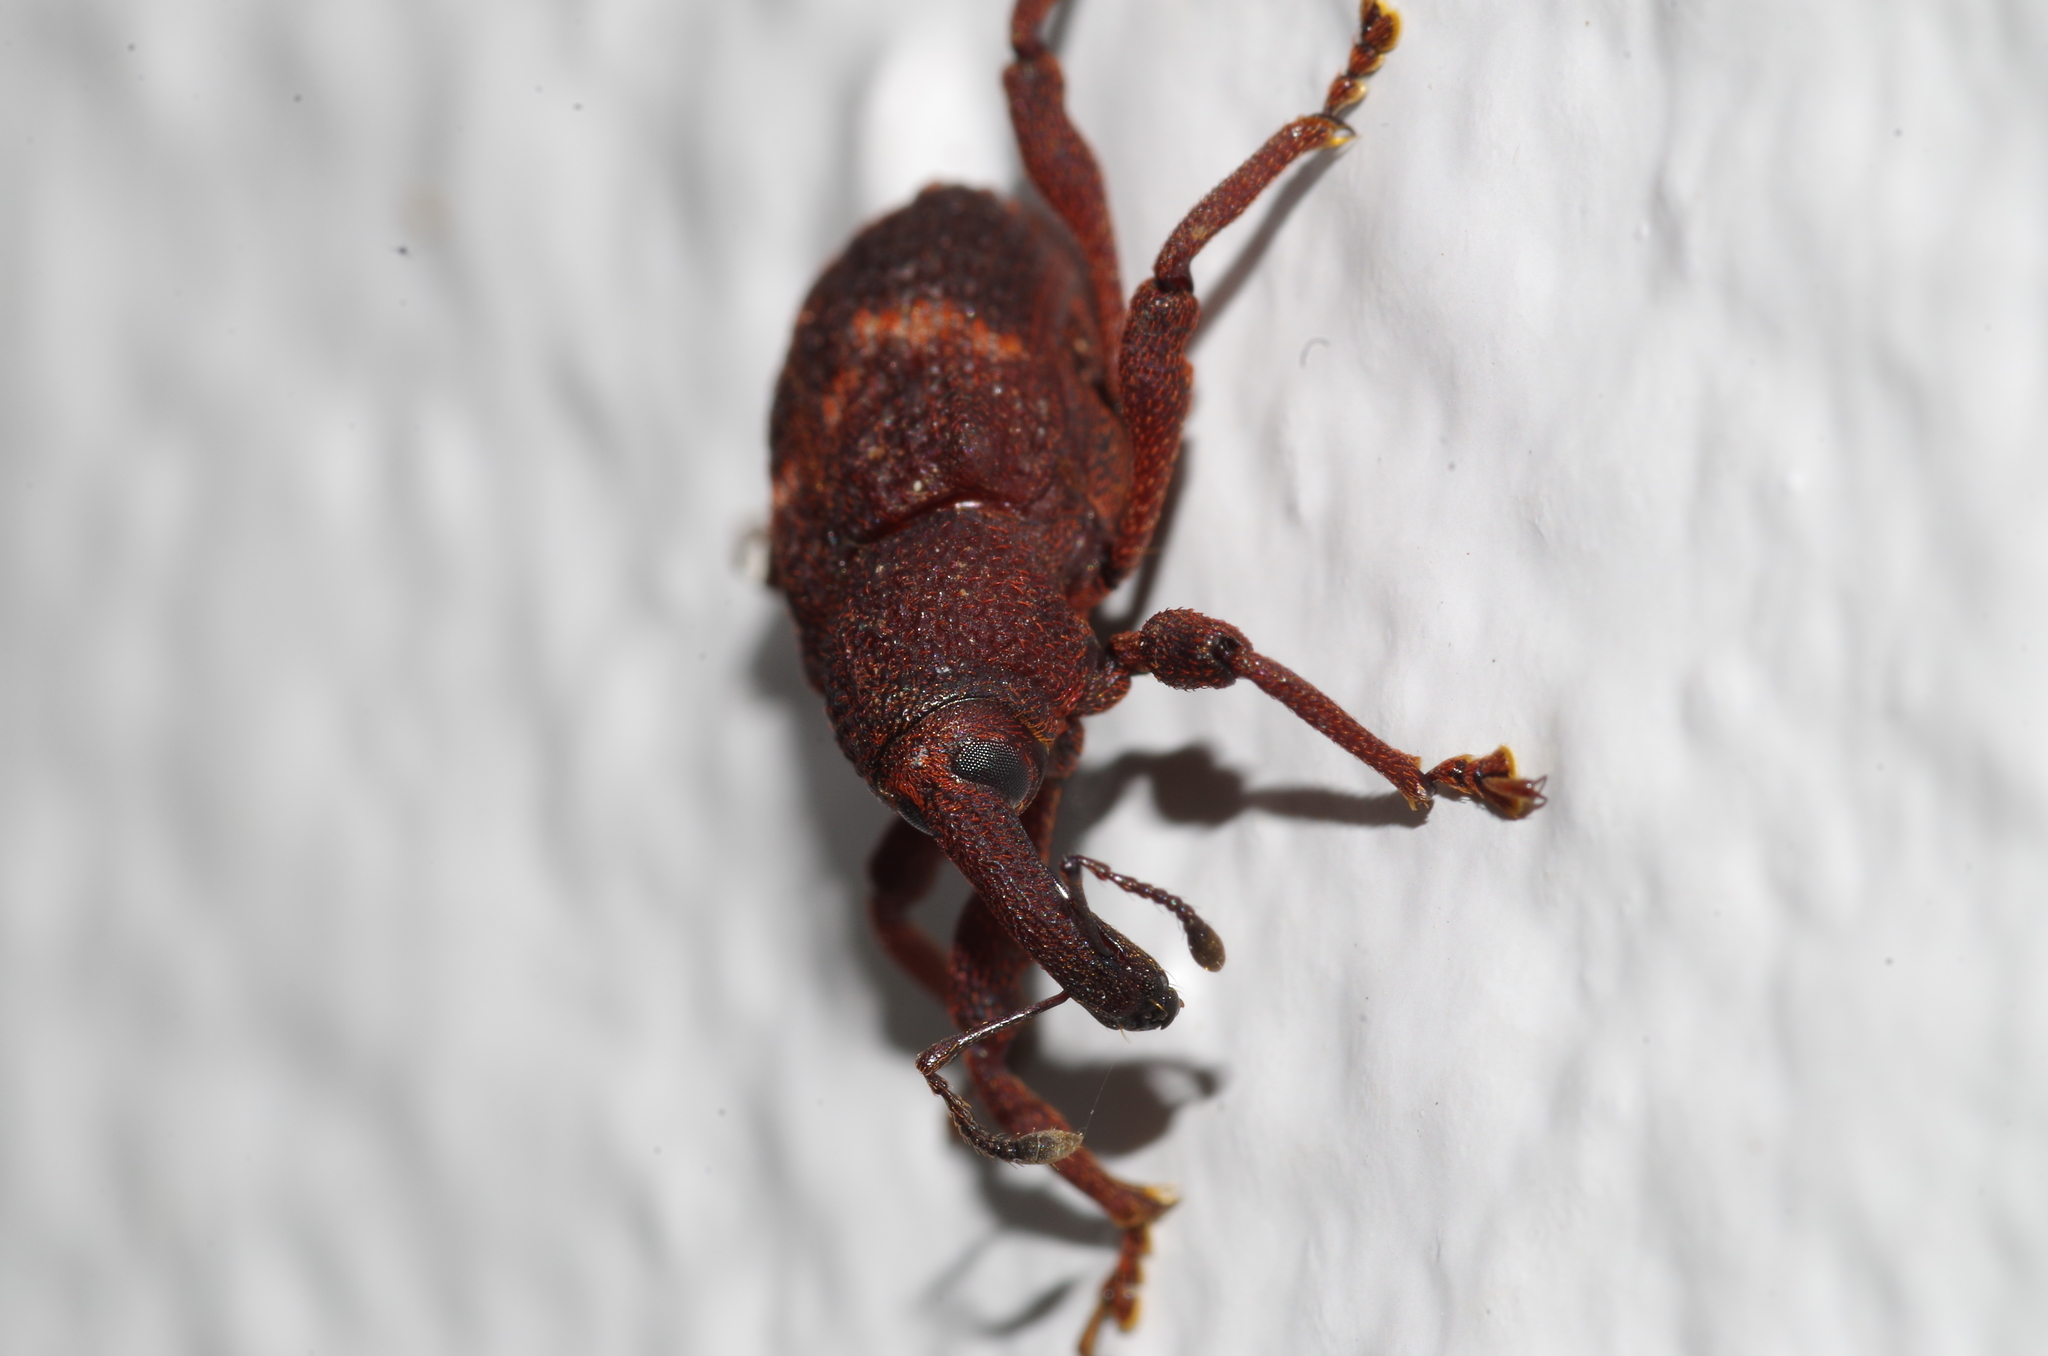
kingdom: Animalia
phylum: Arthropoda
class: Insecta
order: Coleoptera
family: Curculionidae
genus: Pimelocerus
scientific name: Pimelocerus
